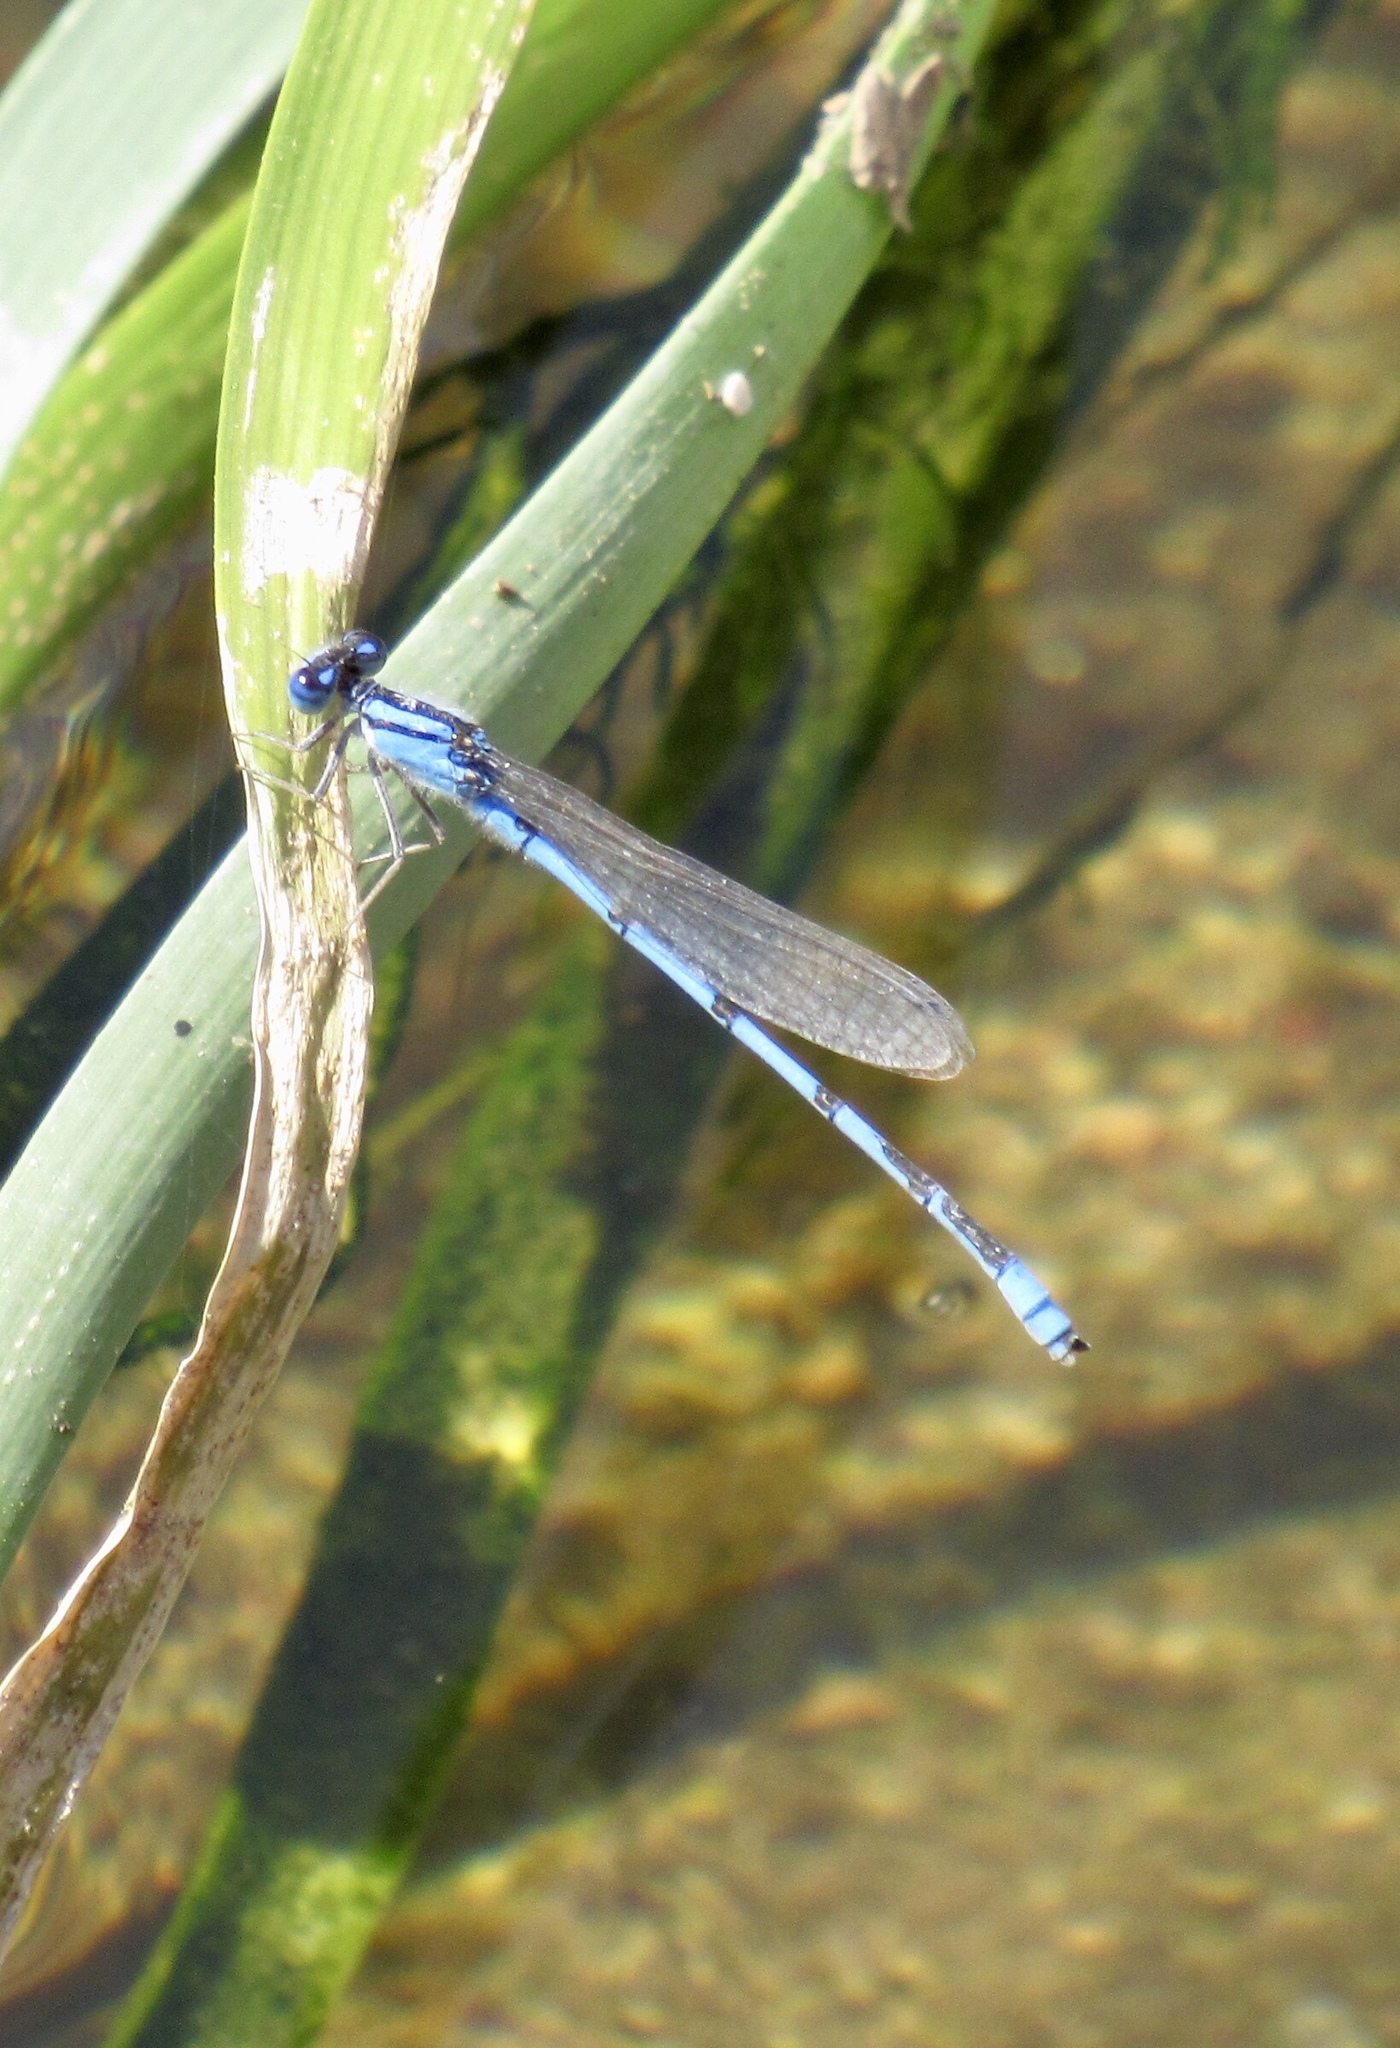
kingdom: Animalia
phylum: Arthropoda
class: Insecta
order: Odonata
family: Coenagrionidae
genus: Enallagma
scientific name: Enallagma civile
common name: Damselfly
